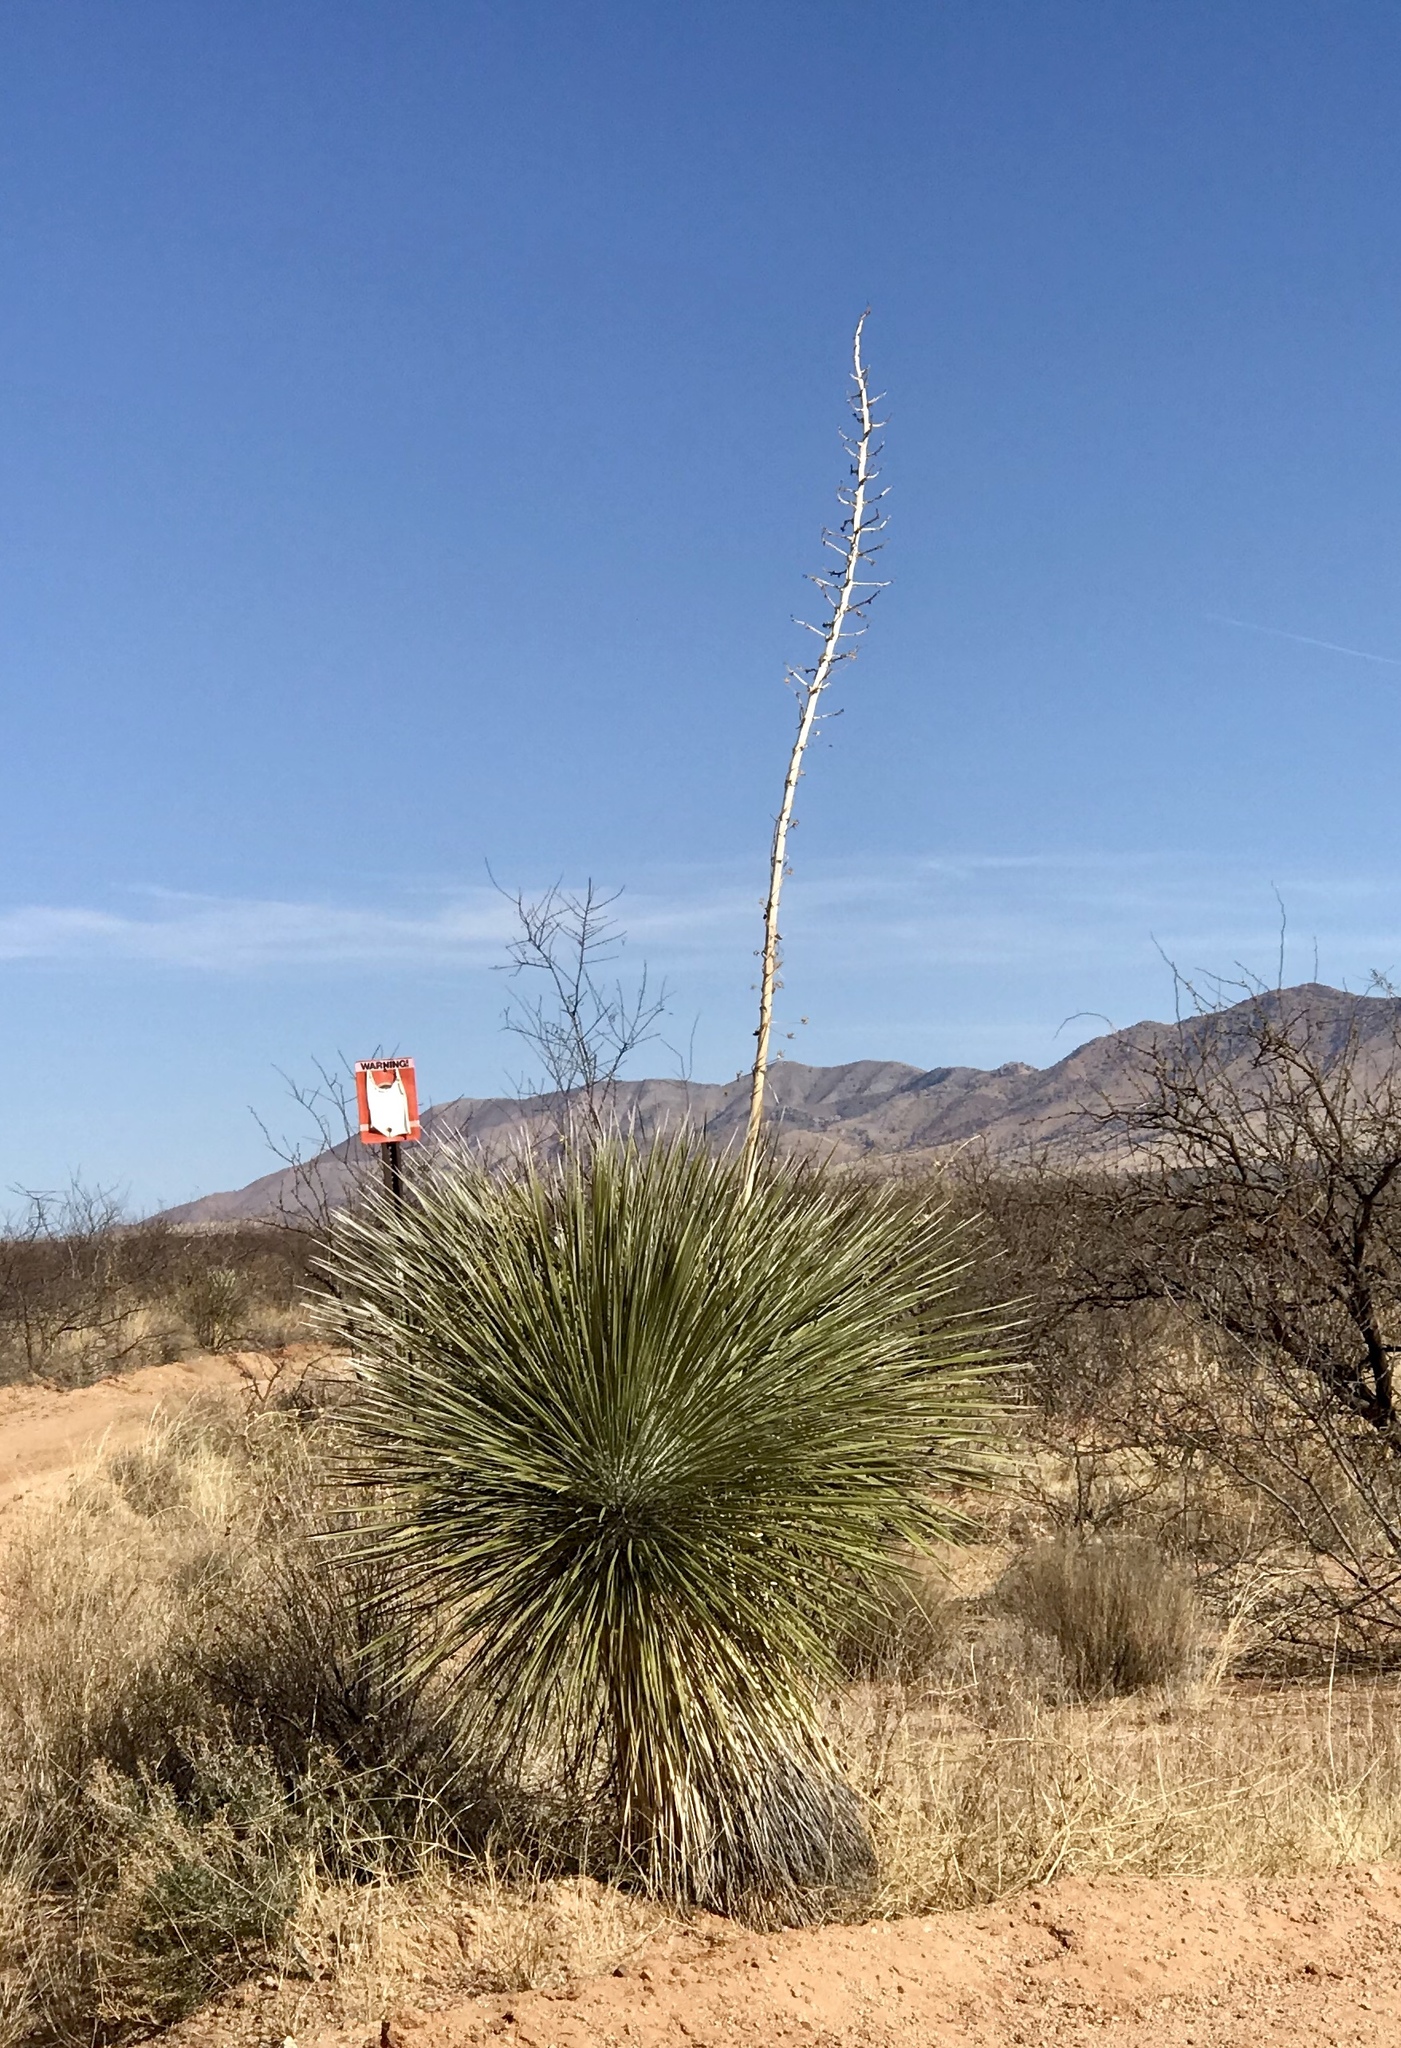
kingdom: Plantae
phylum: Tracheophyta
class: Liliopsida
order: Asparagales
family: Asparagaceae
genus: Yucca
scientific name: Yucca elata
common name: Palmella
